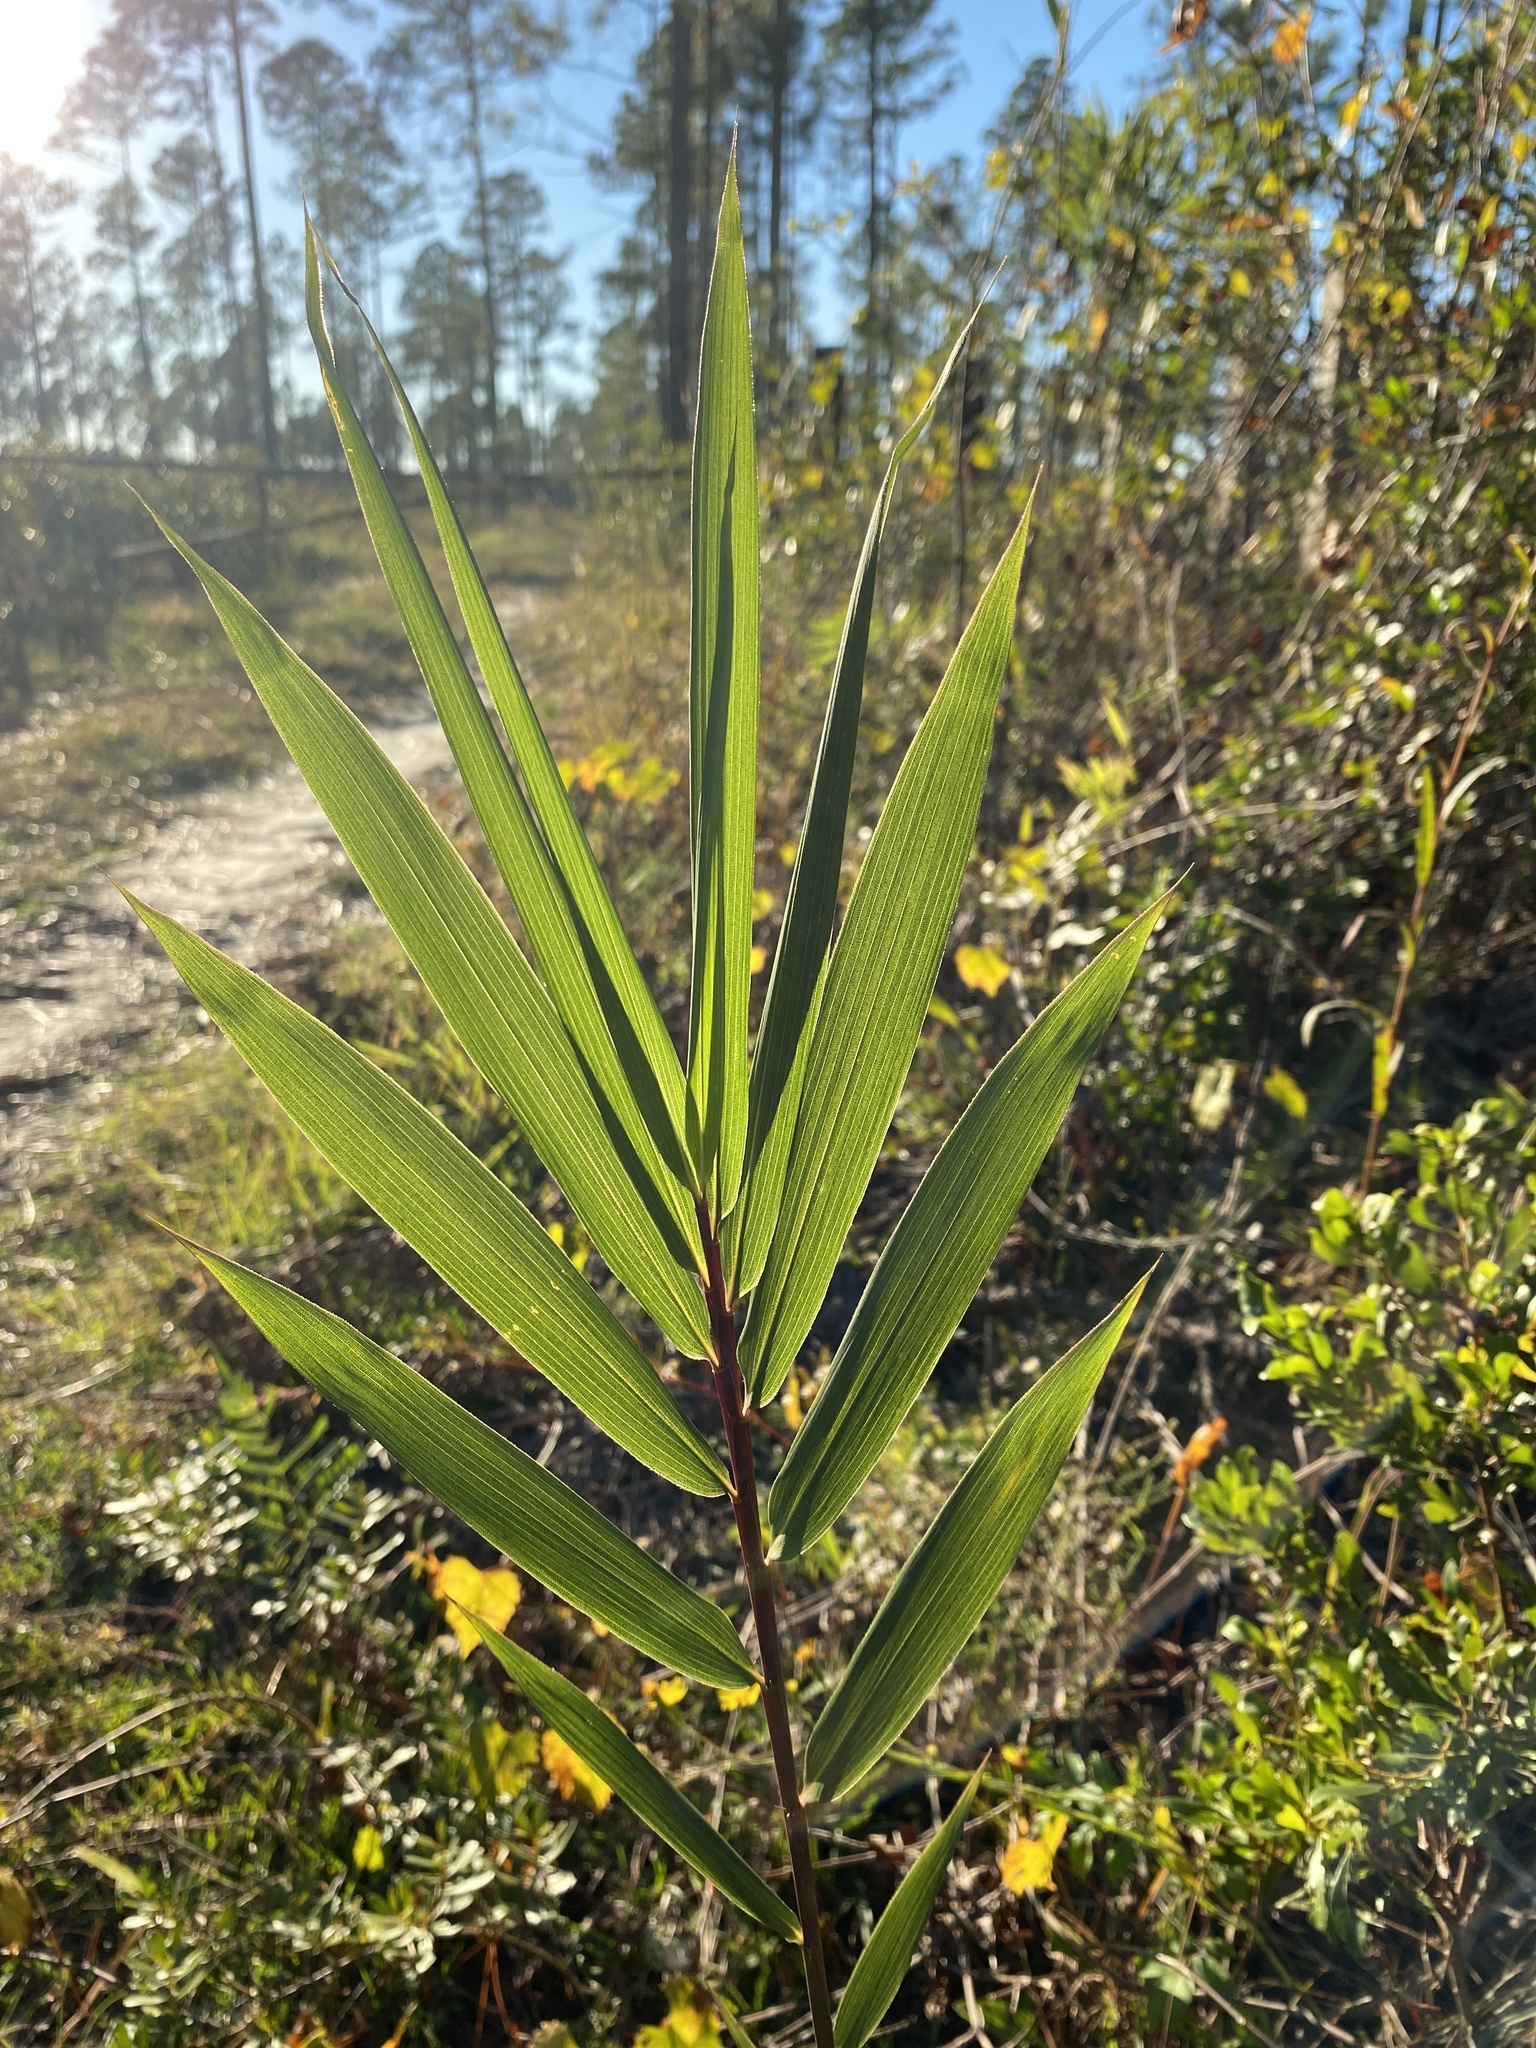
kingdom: Plantae
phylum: Tracheophyta
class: Liliopsida
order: Poales
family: Poaceae
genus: Arundinaria
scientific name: Arundinaria tecta
